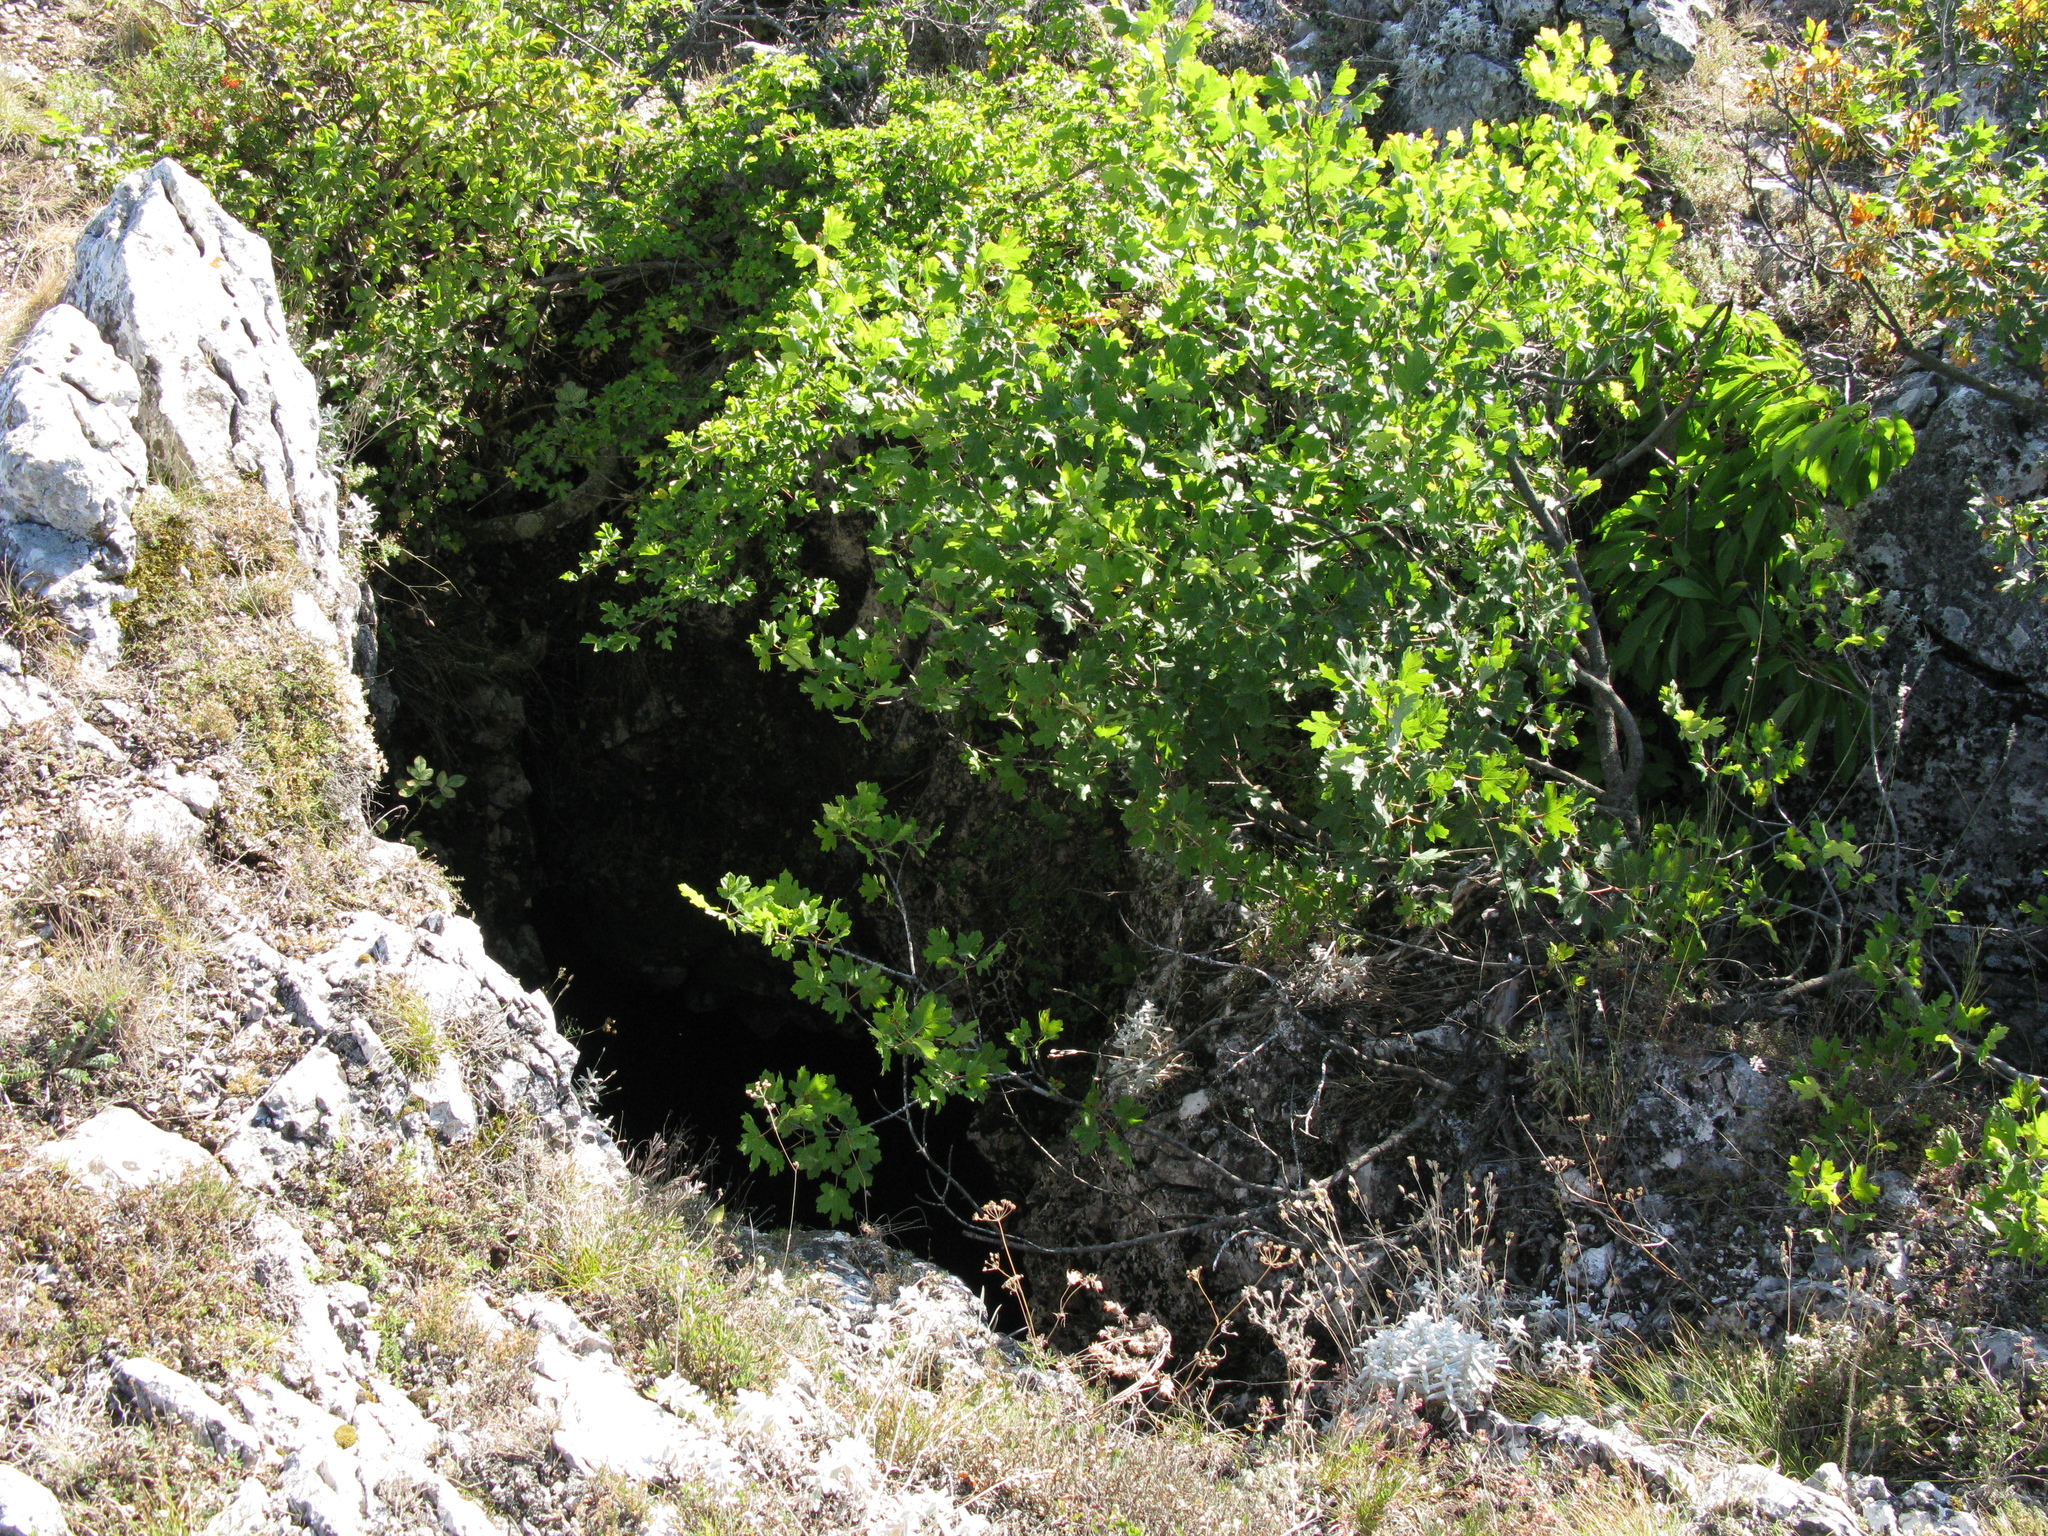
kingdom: Plantae
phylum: Tracheophyta
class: Magnoliopsida
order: Sapindales
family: Sapindaceae
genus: Acer
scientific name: Acer campestre
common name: Field maple
